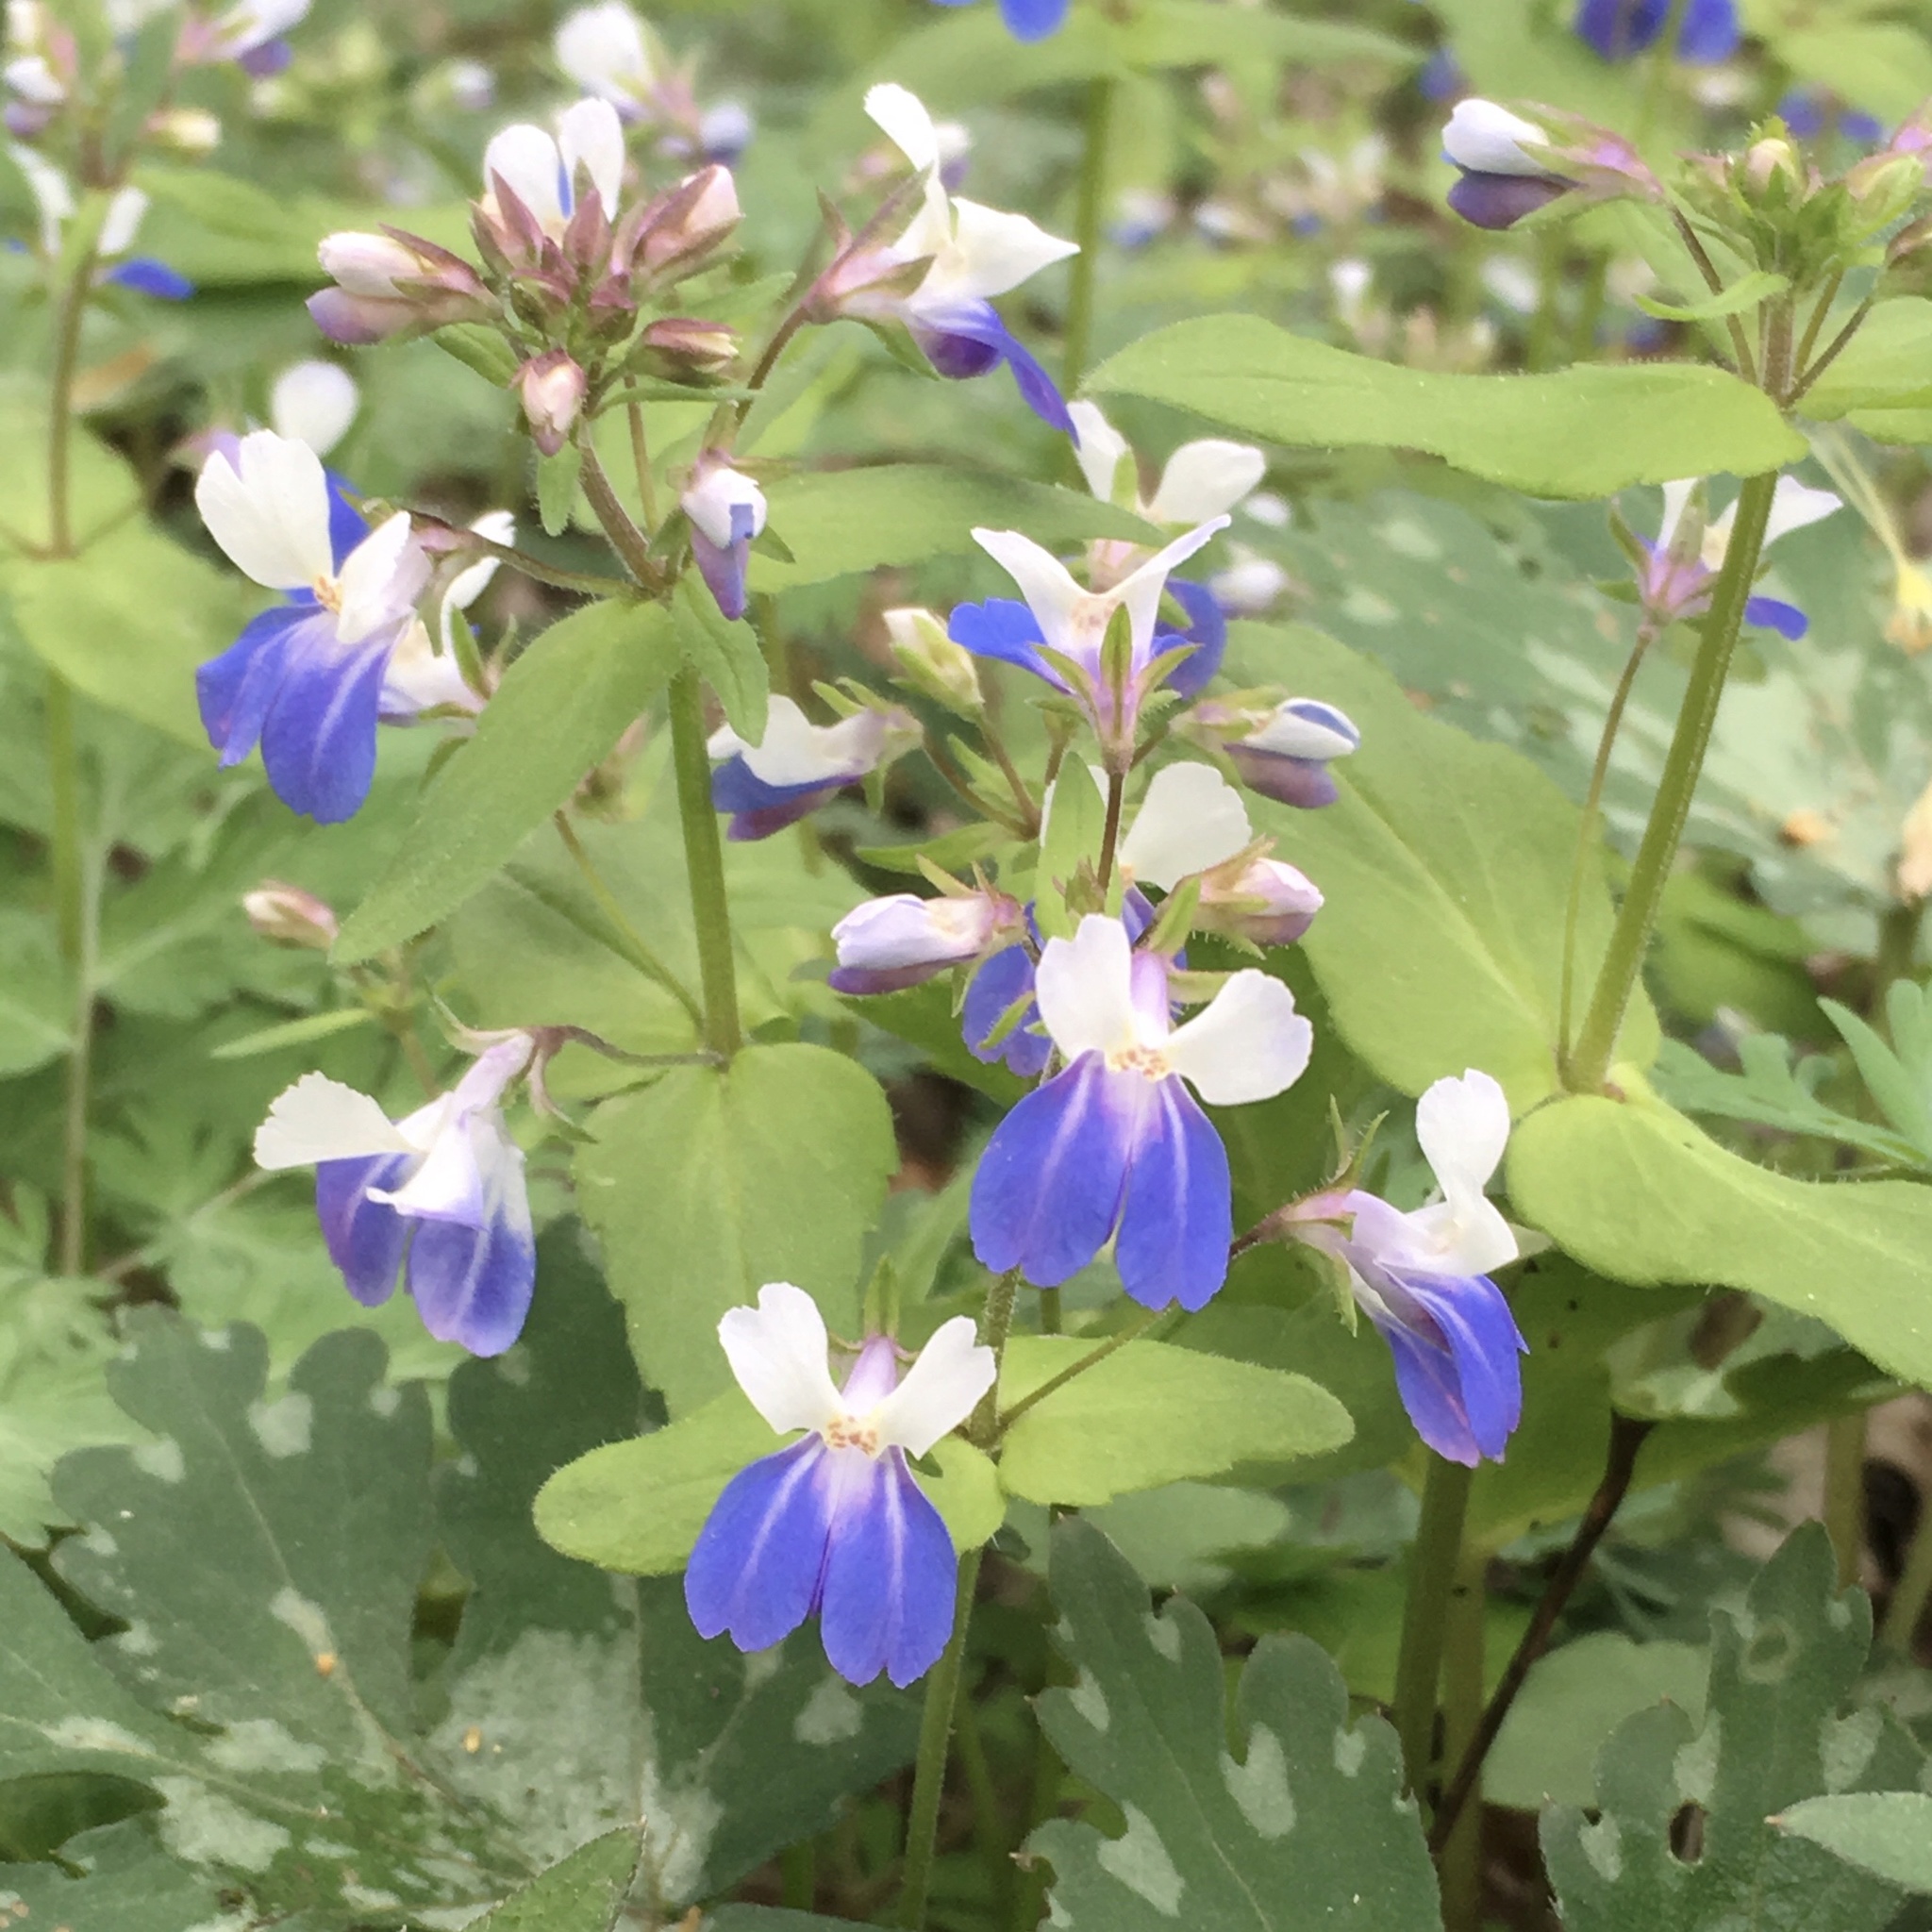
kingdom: Plantae
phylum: Tracheophyta
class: Magnoliopsida
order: Lamiales
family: Plantaginaceae
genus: Collinsia
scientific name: Collinsia verna
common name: Broad-leaved collinsia
